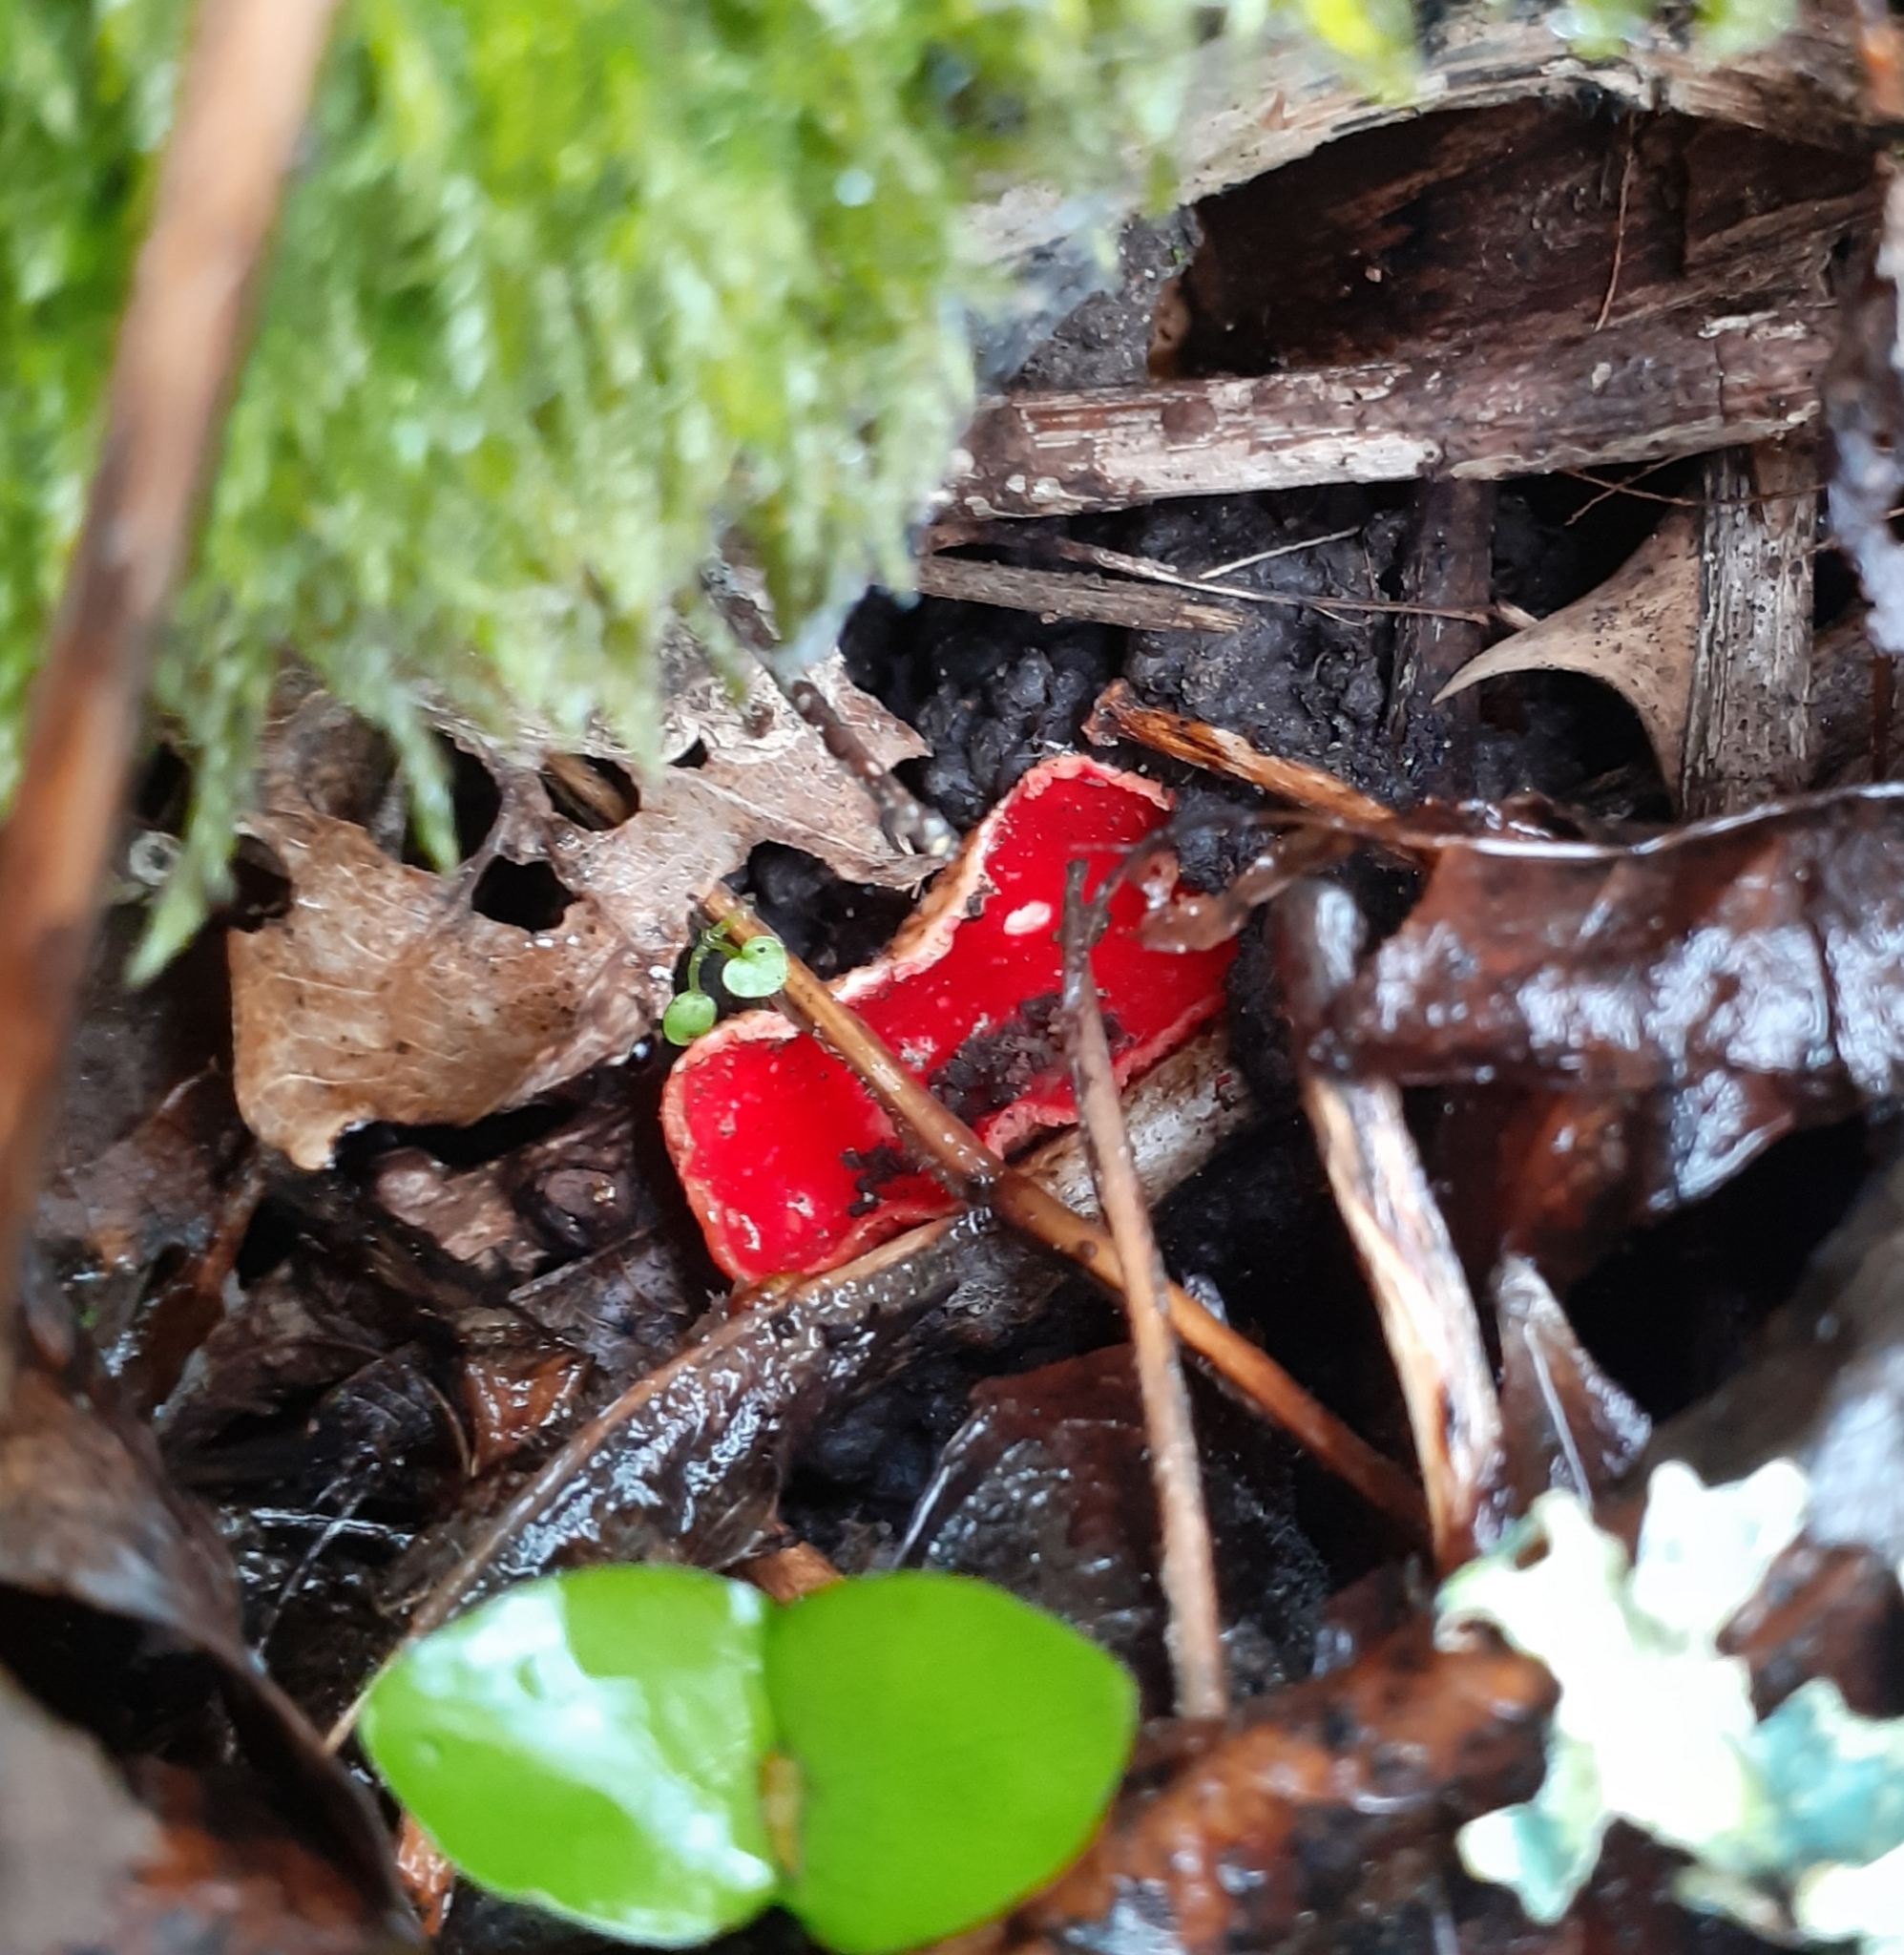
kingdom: Fungi
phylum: Ascomycota
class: Pezizomycetes
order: Pezizales
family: Sarcoscyphaceae
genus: Sarcoscypha
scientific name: Sarcoscypha
